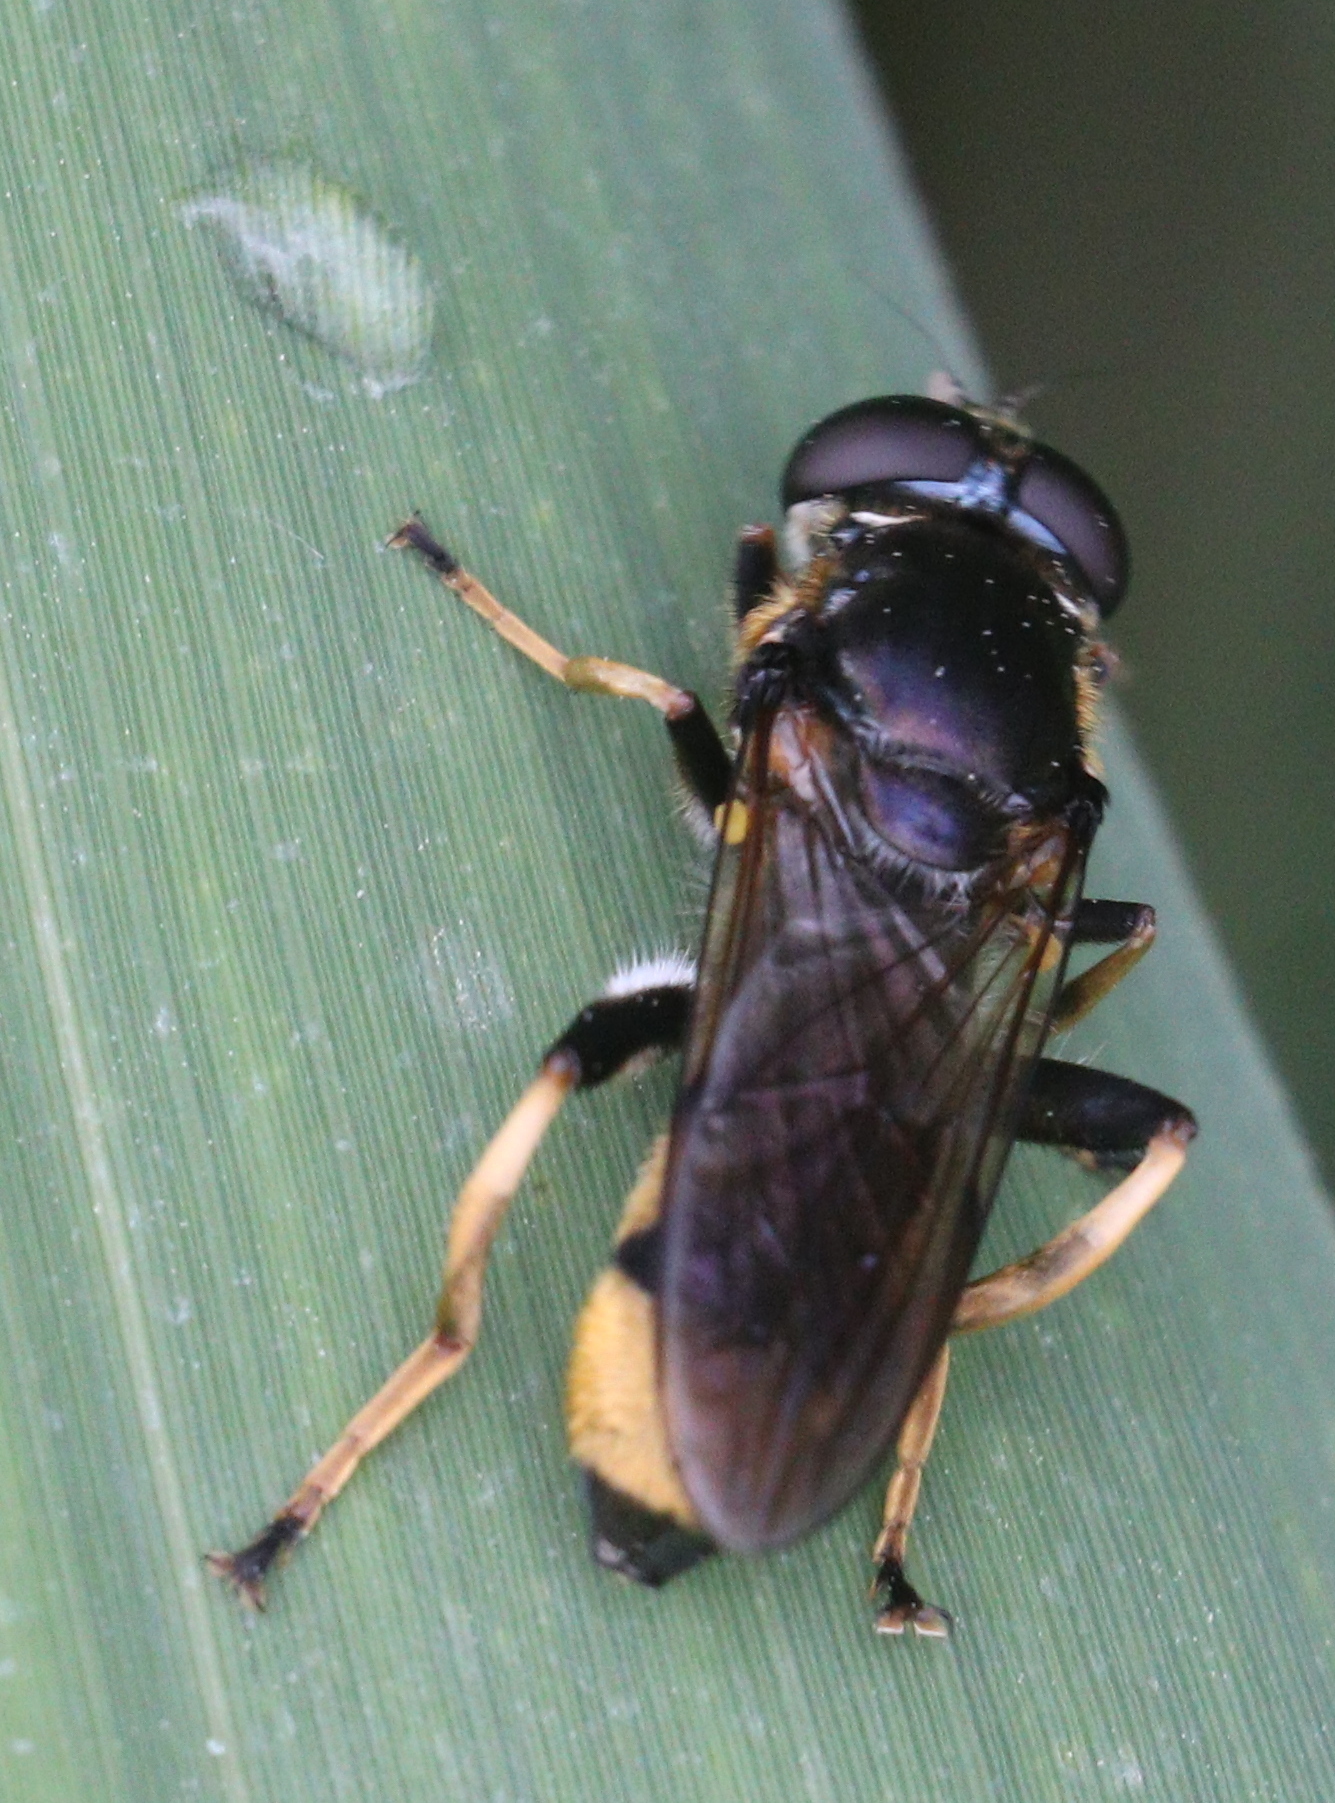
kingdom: Animalia
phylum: Arthropoda
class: Insecta
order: Diptera
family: Syrphidae
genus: Xylota
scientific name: Xylota sylvarum
